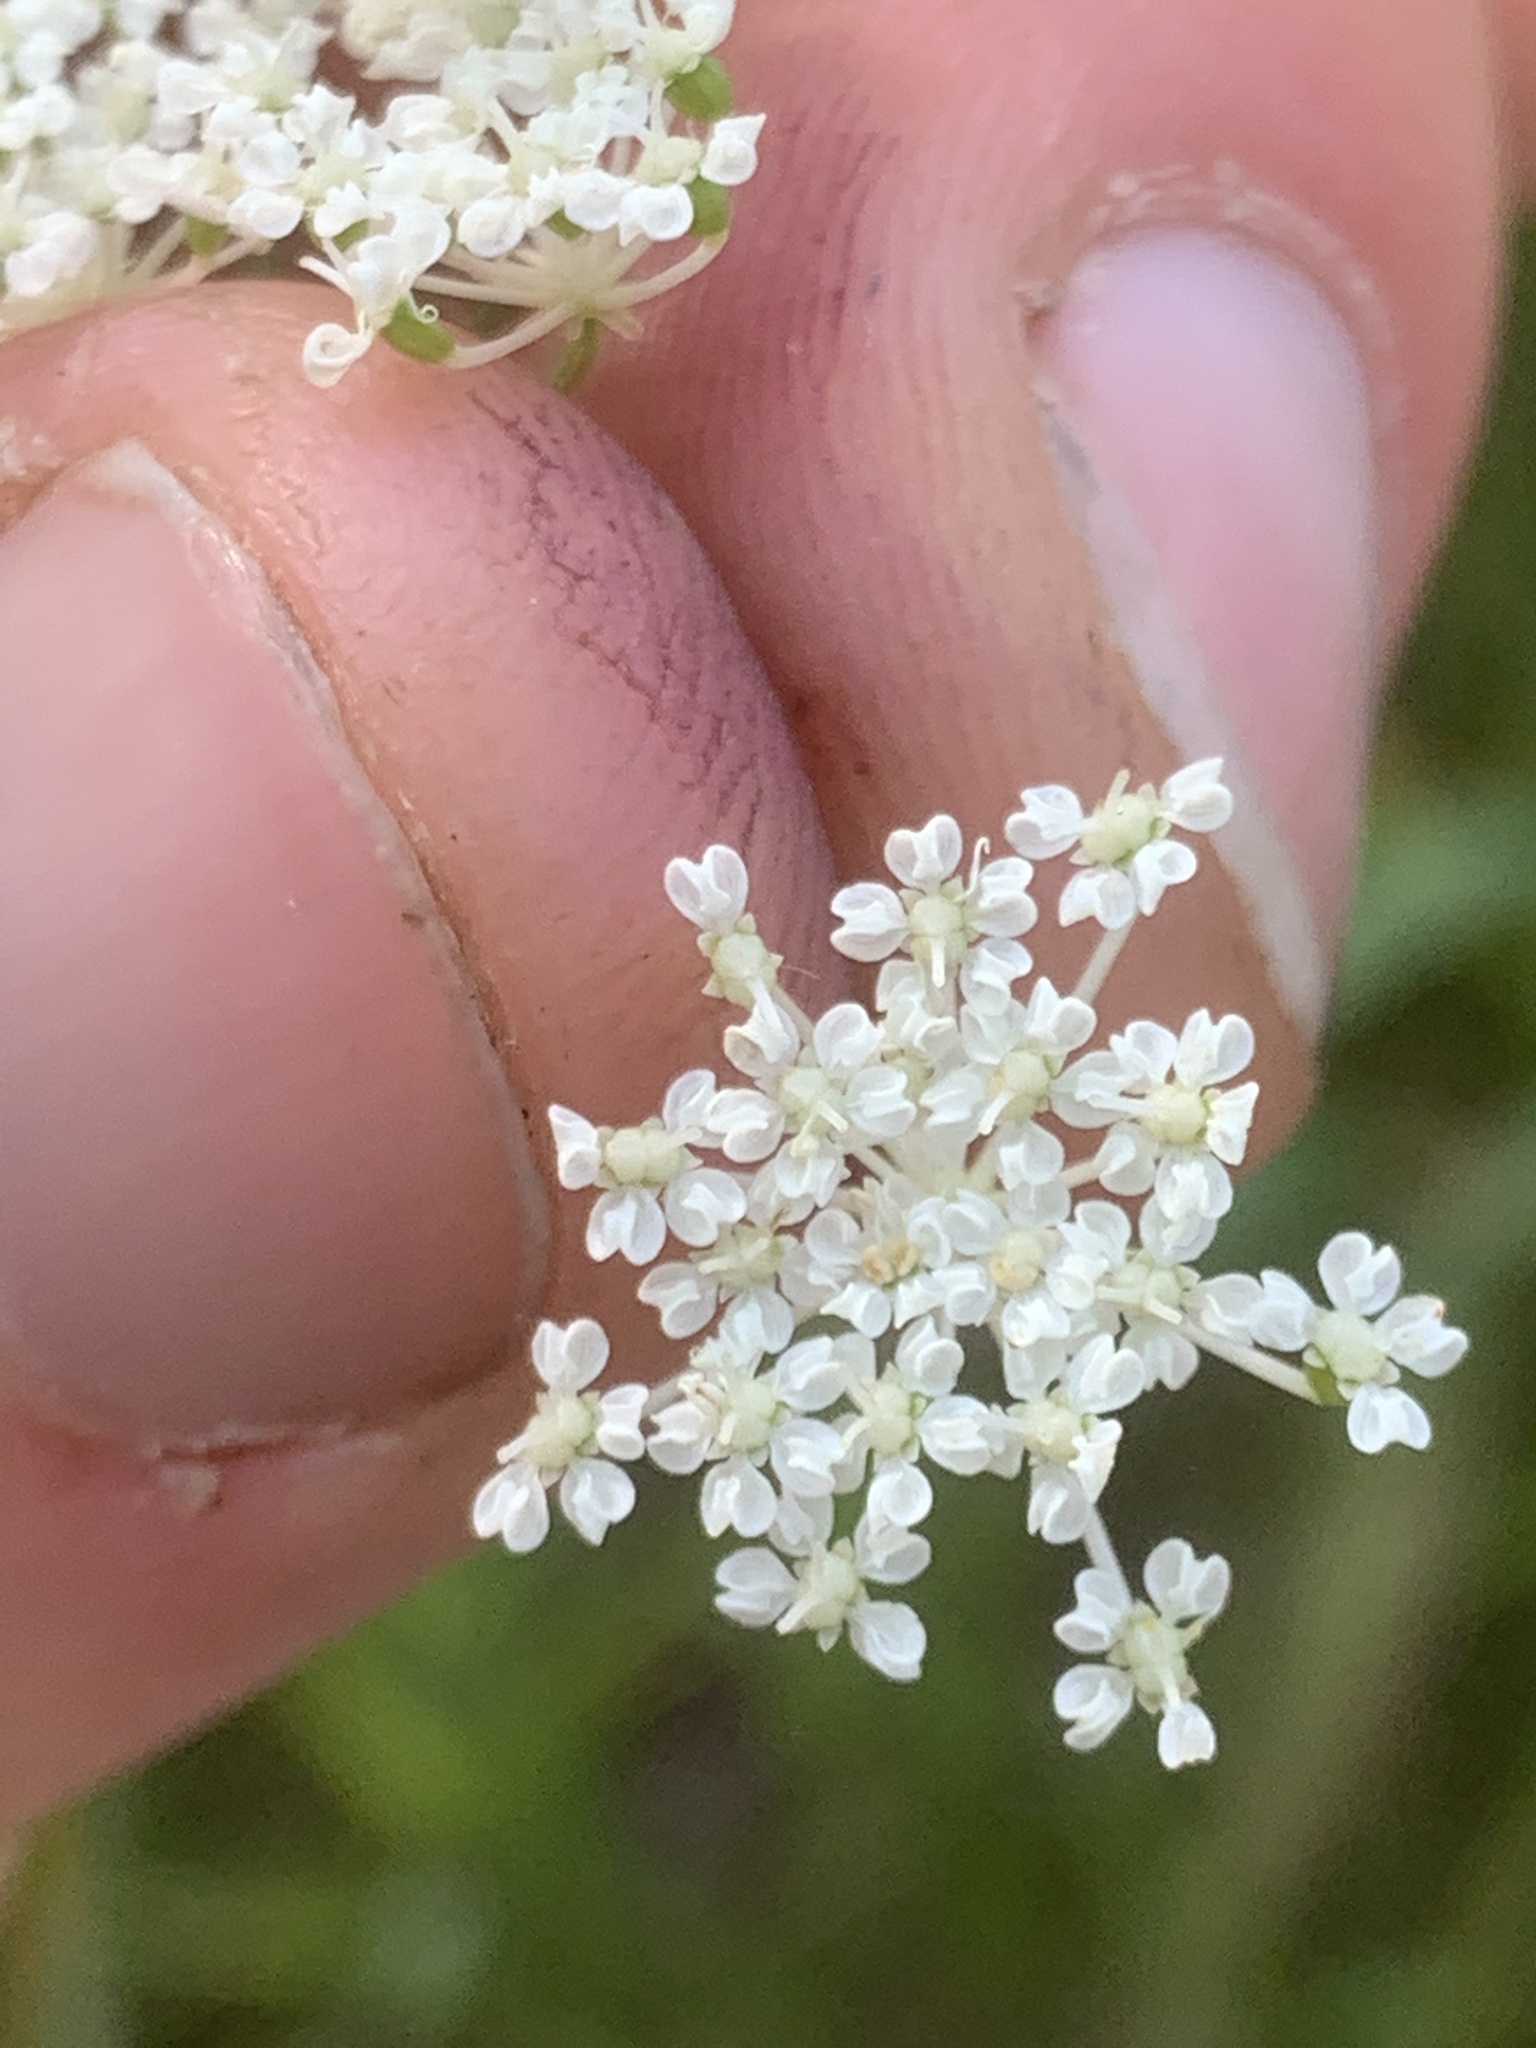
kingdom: Plantae
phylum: Tracheophyta
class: Magnoliopsida
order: Apiales
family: Apiaceae
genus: Perideridia
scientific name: Perideridia gairdneri
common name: False caraway
